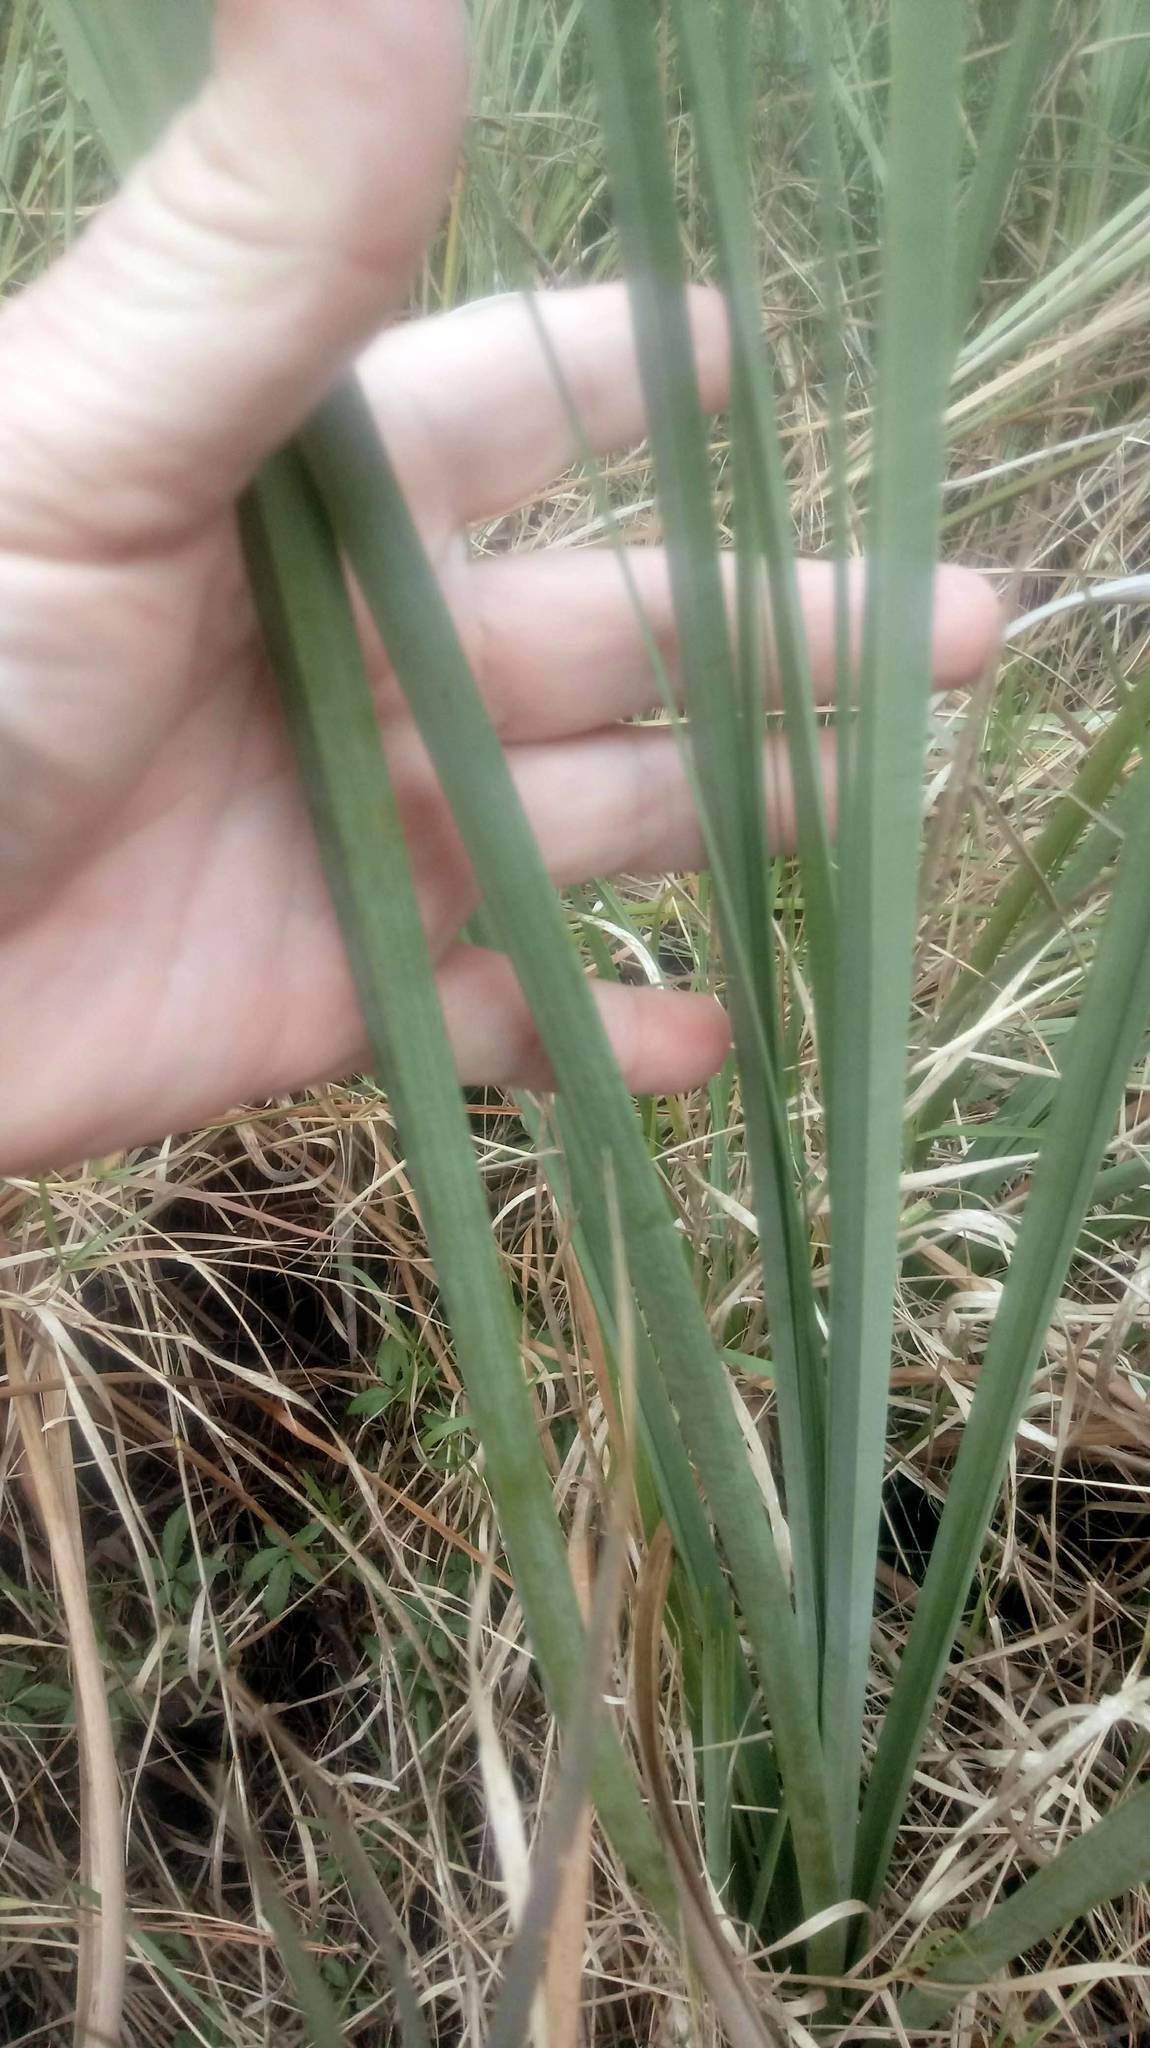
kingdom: Plantae
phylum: Tracheophyta
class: Liliopsida
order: Poales
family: Cyperaceae
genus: Cladium
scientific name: Cladium mariscus
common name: Great fen-sedge
